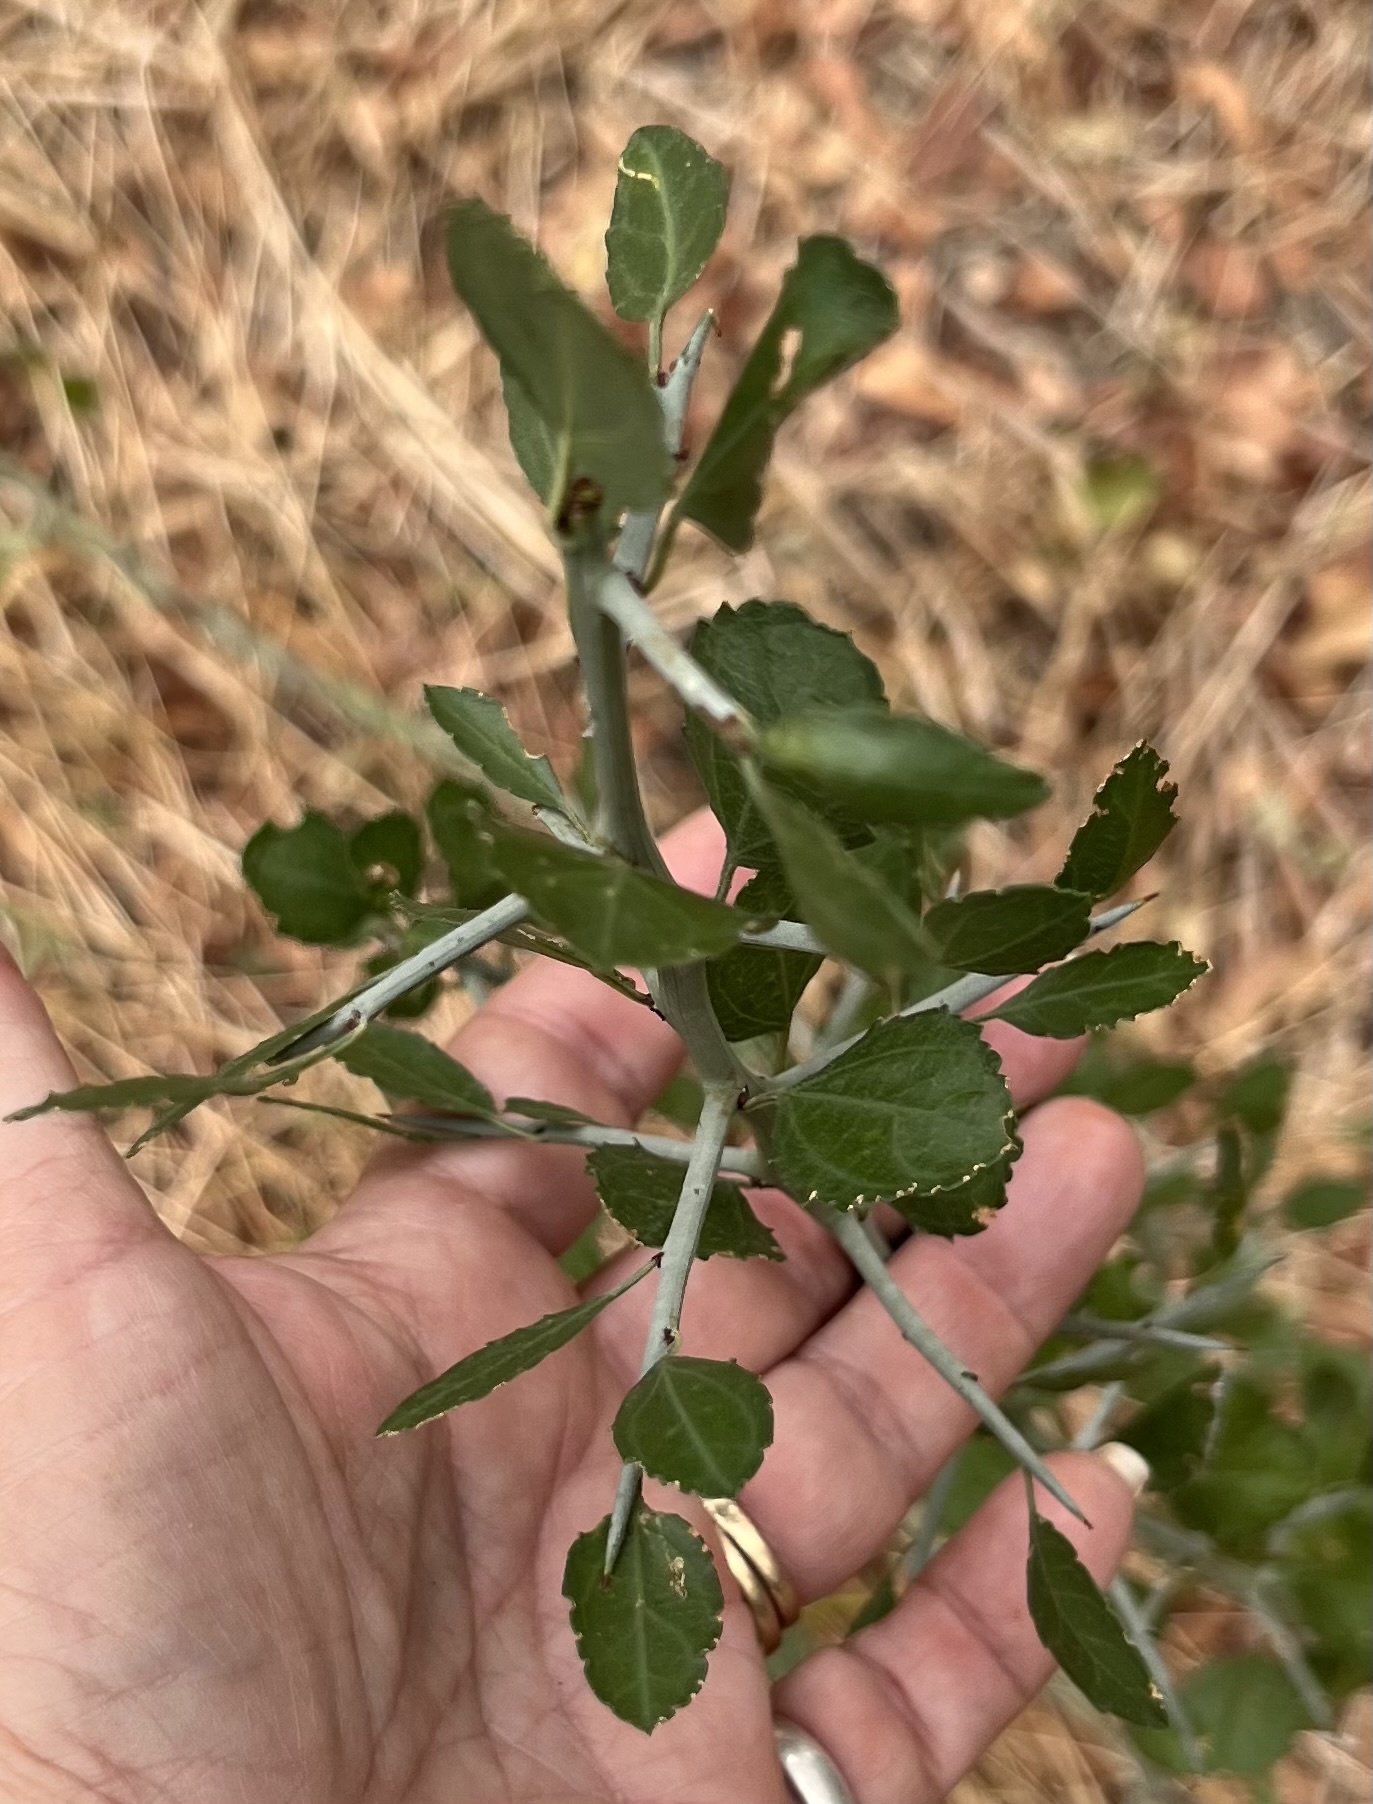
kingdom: Plantae
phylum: Tracheophyta
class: Magnoliopsida
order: Rosales
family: Rhamnaceae
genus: Sarcomphalus
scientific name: Sarcomphalus obtusifolius
